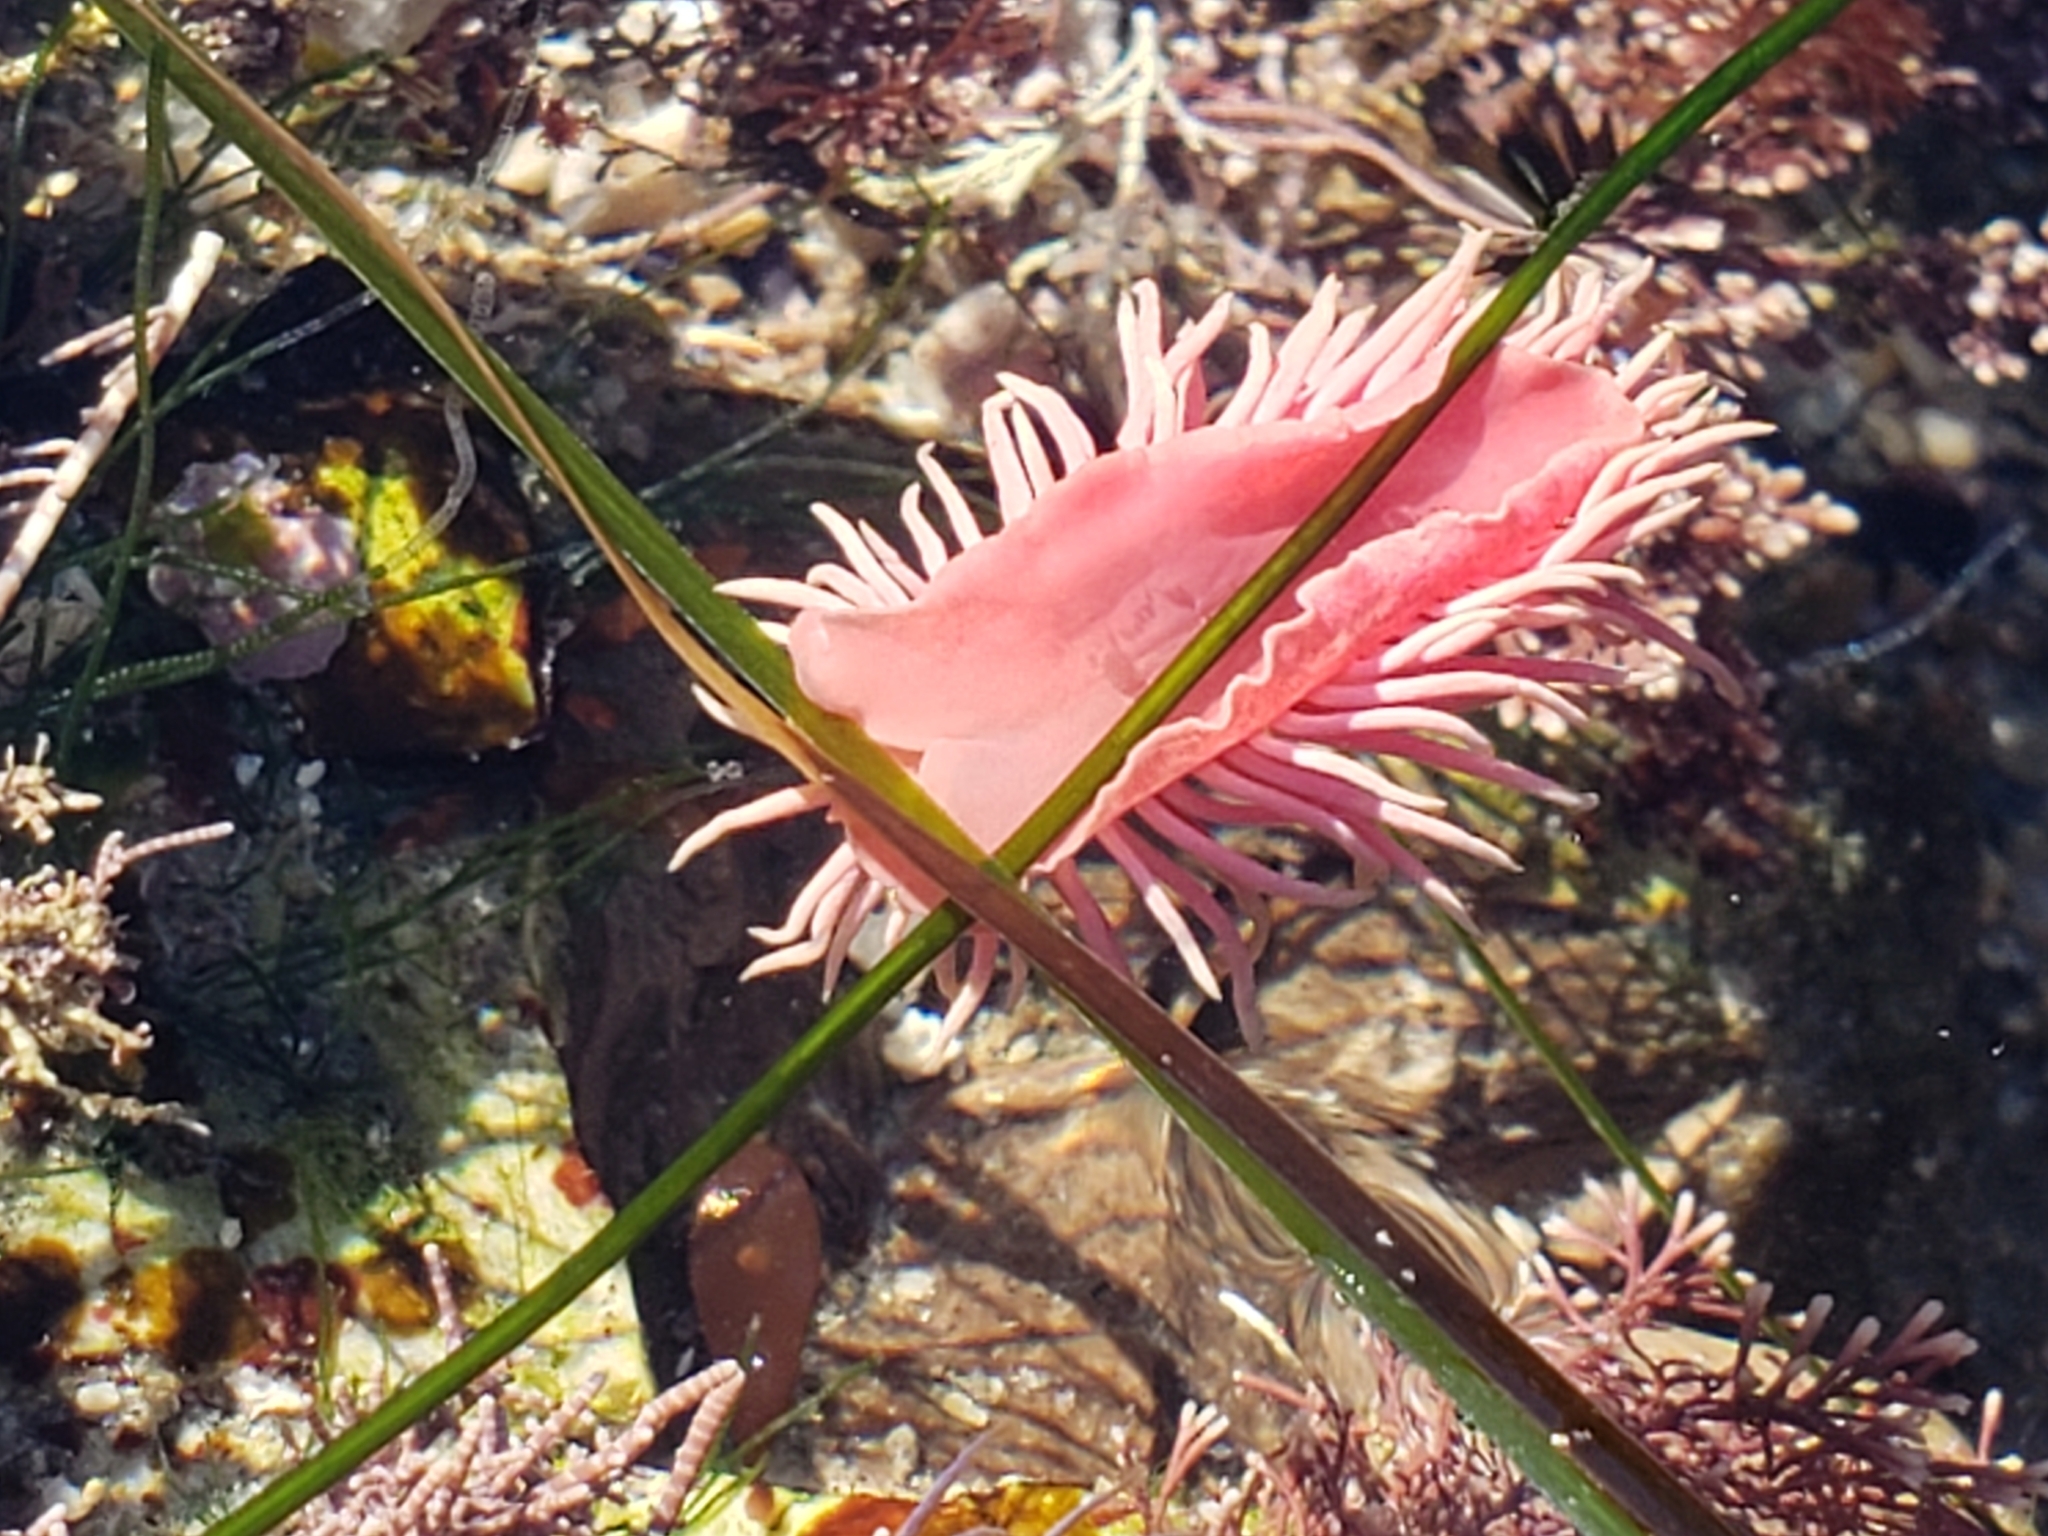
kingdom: Animalia
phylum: Mollusca
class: Gastropoda
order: Nudibranchia
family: Goniodorididae
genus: Okenia
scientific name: Okenia
